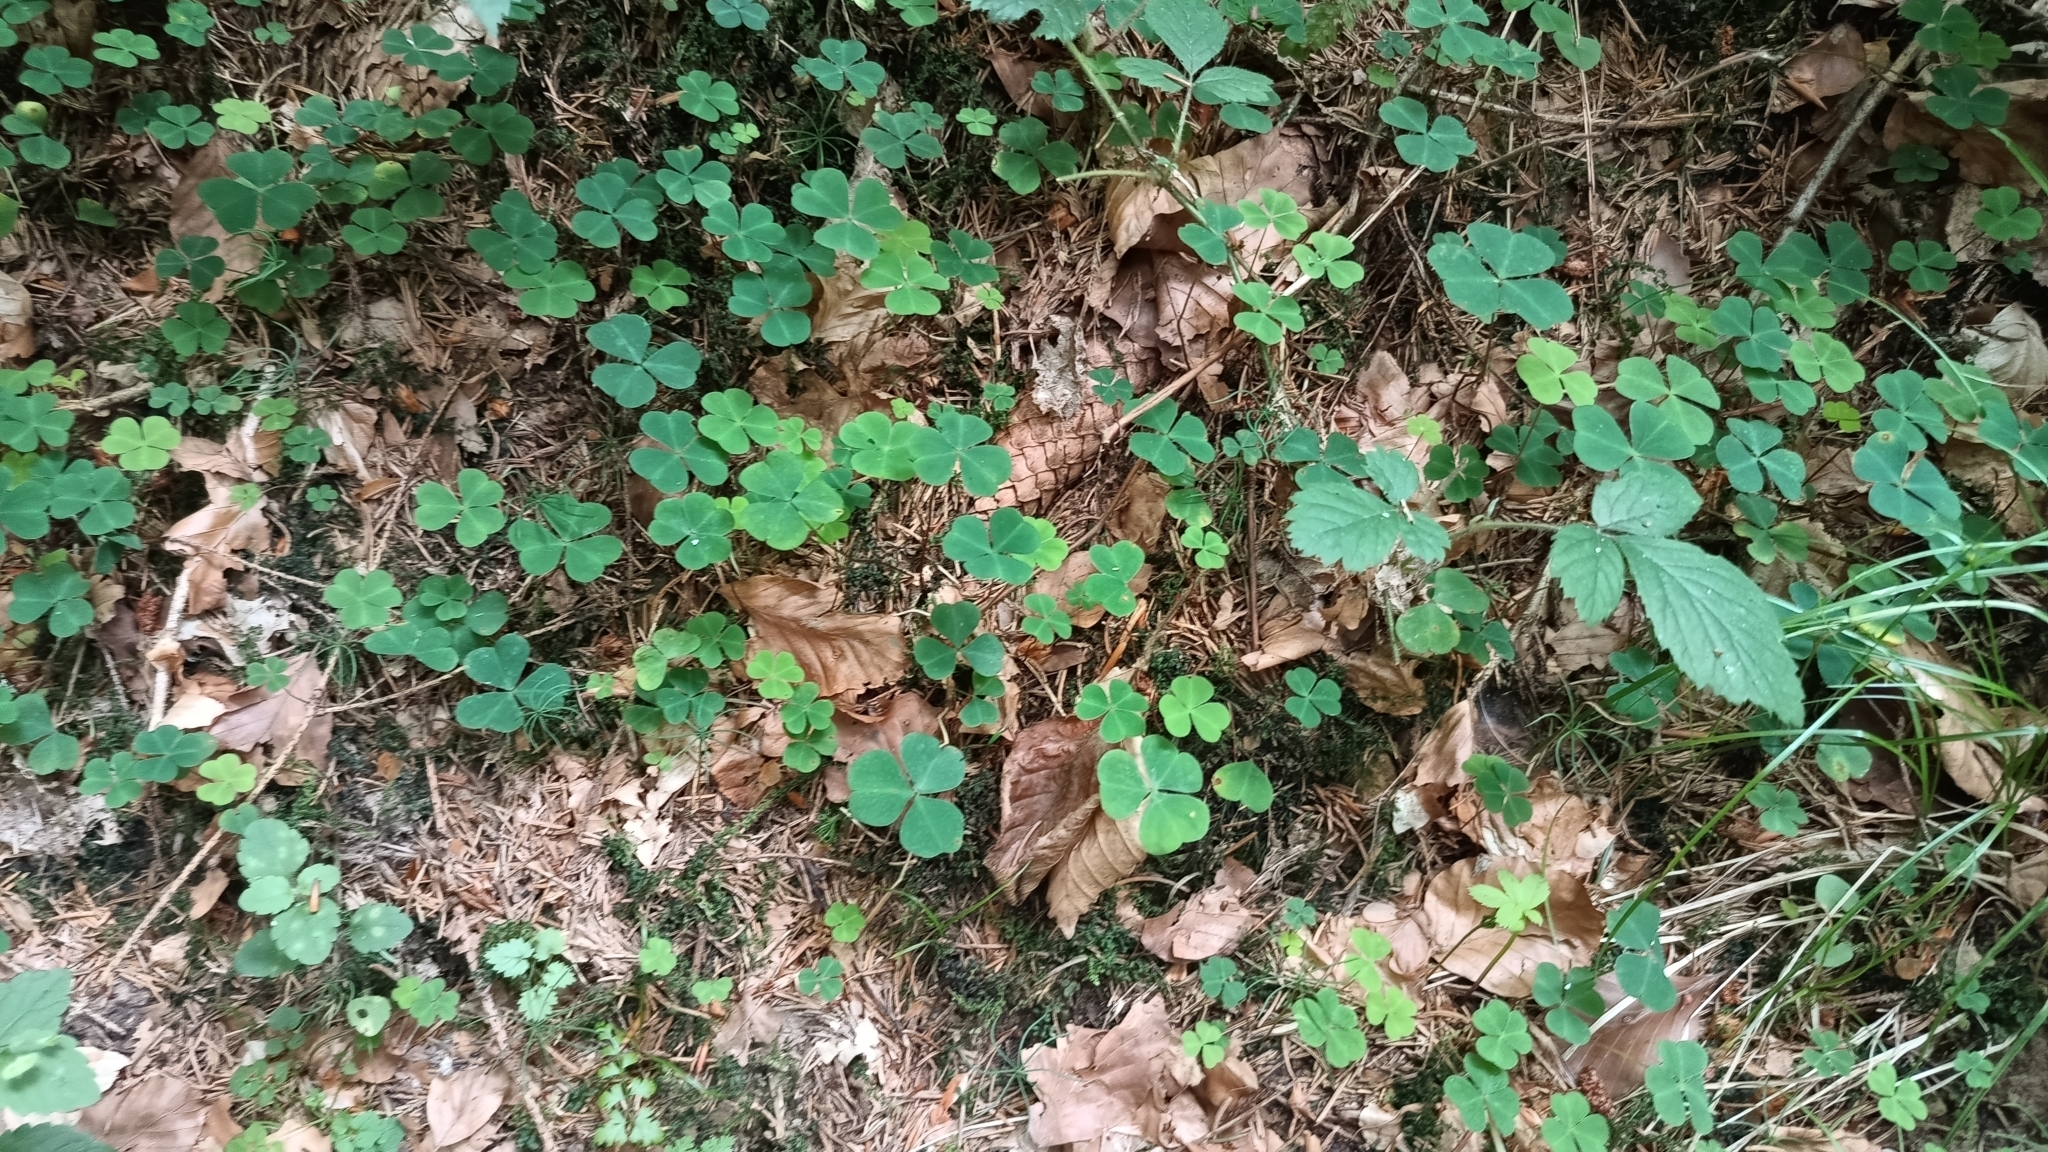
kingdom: Plantae
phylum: Tracheophyta
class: Magnoliopsida
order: Oxalidales
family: Oxalidaceae
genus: Oxalis
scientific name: Oxalis acetosella
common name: Wood-sorrel
